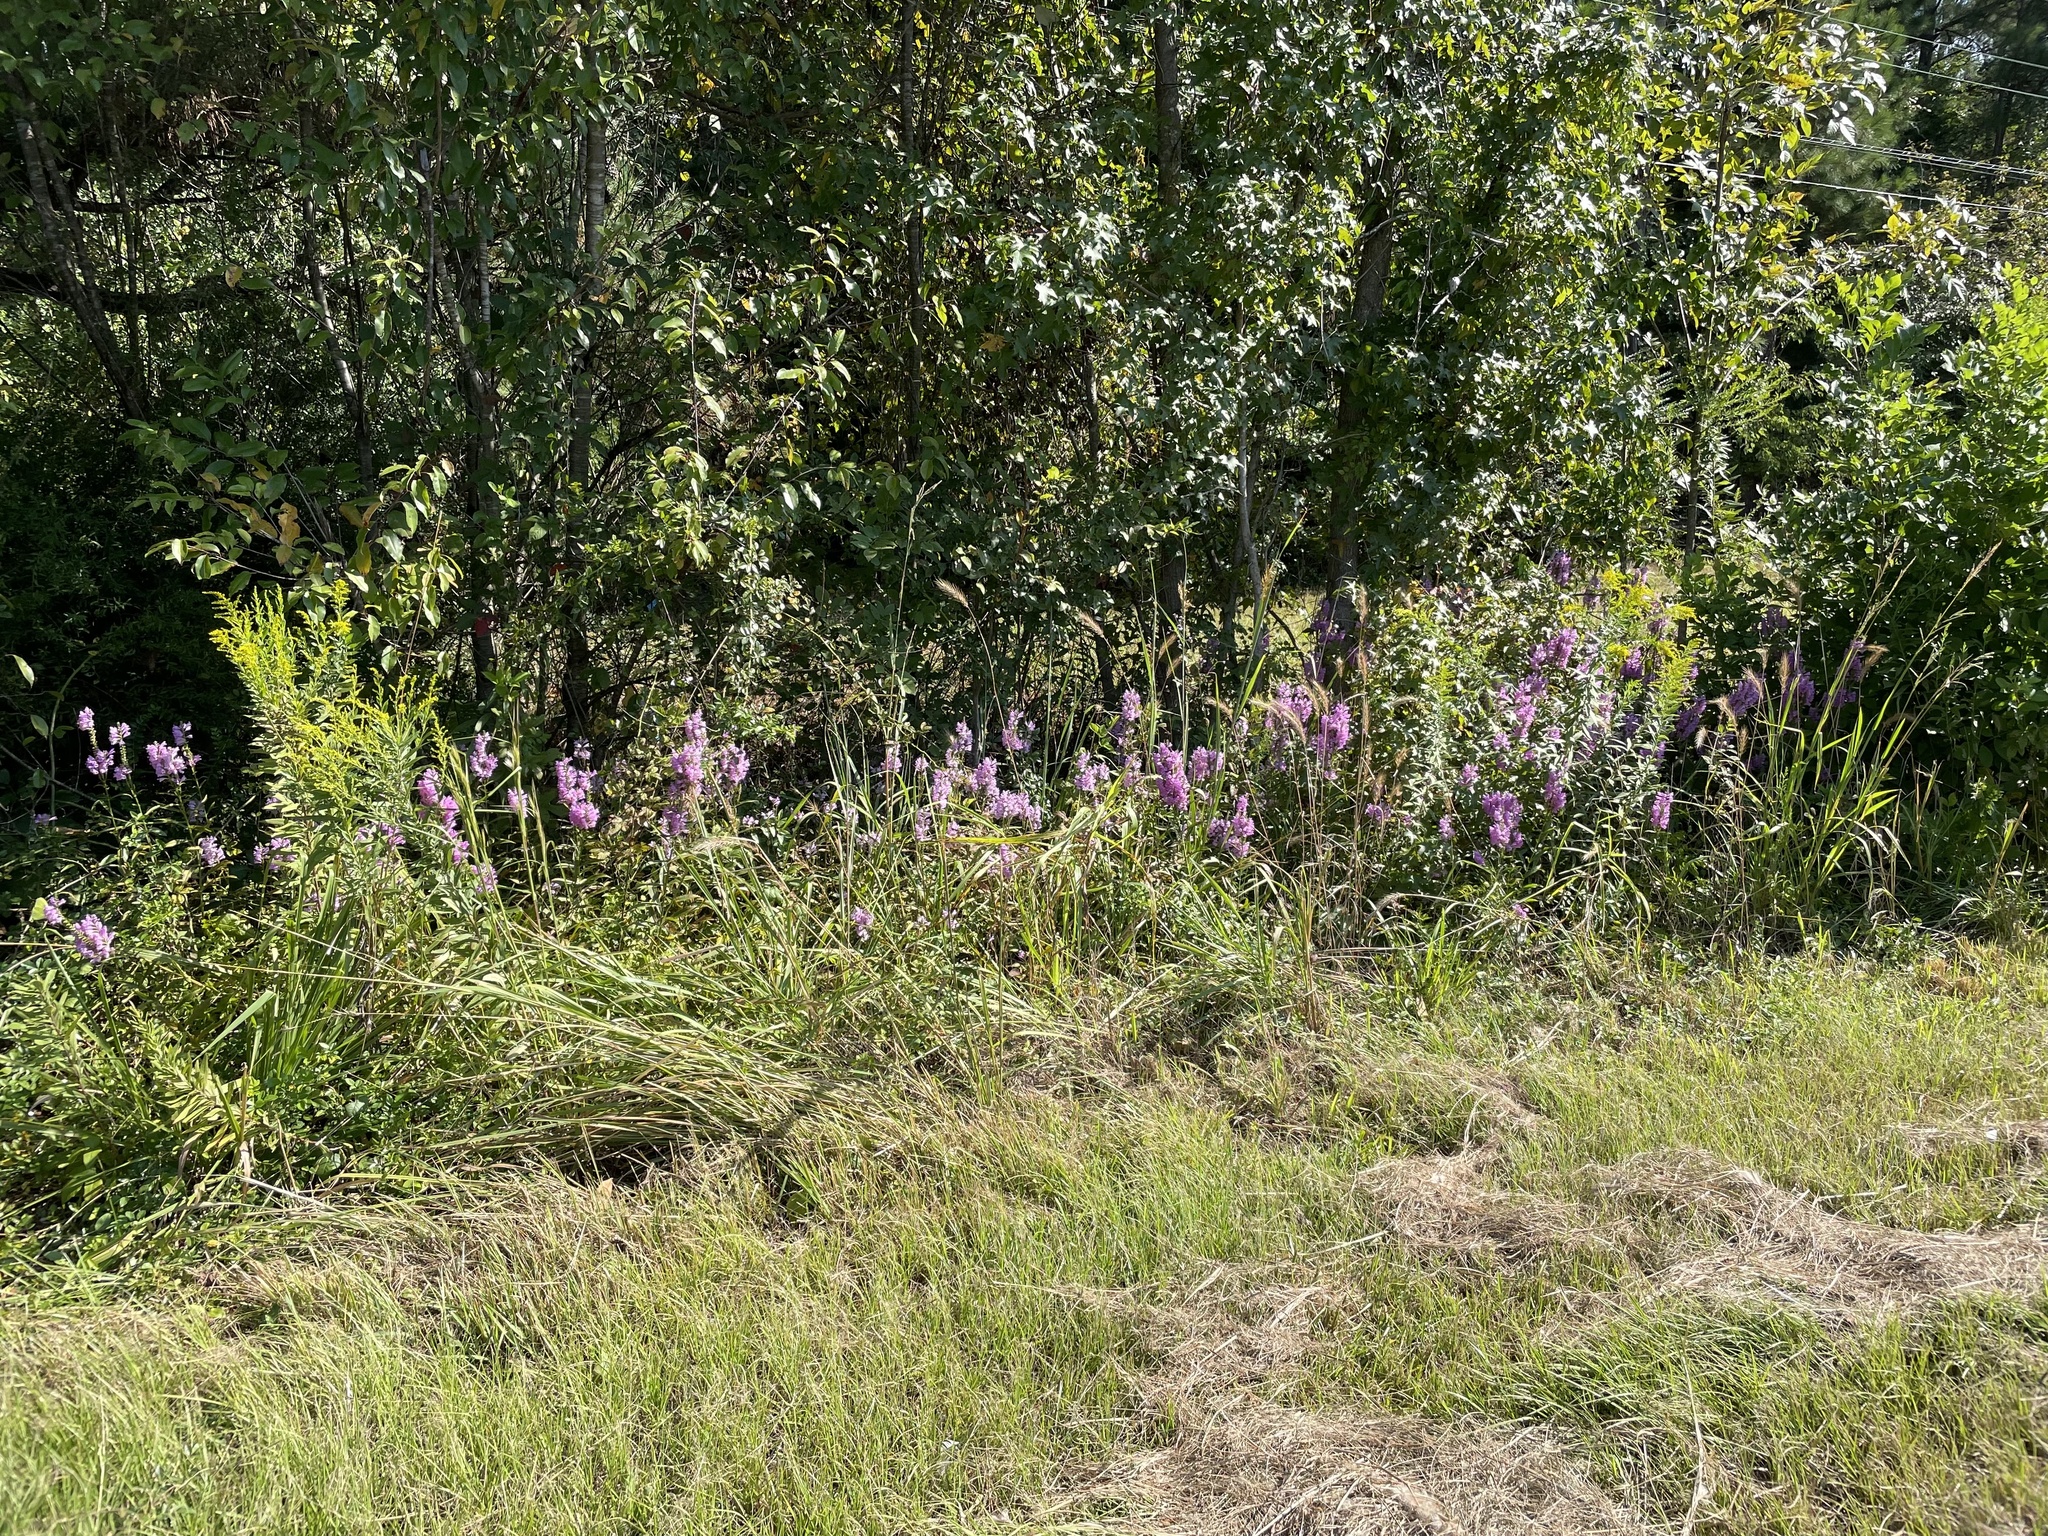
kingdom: Plantae
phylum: Tracheophyta
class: Magnoliopsida
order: Lamiales
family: Lamiaceae
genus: Physostegia
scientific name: Physostegia virginiana
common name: Obedient-plant
